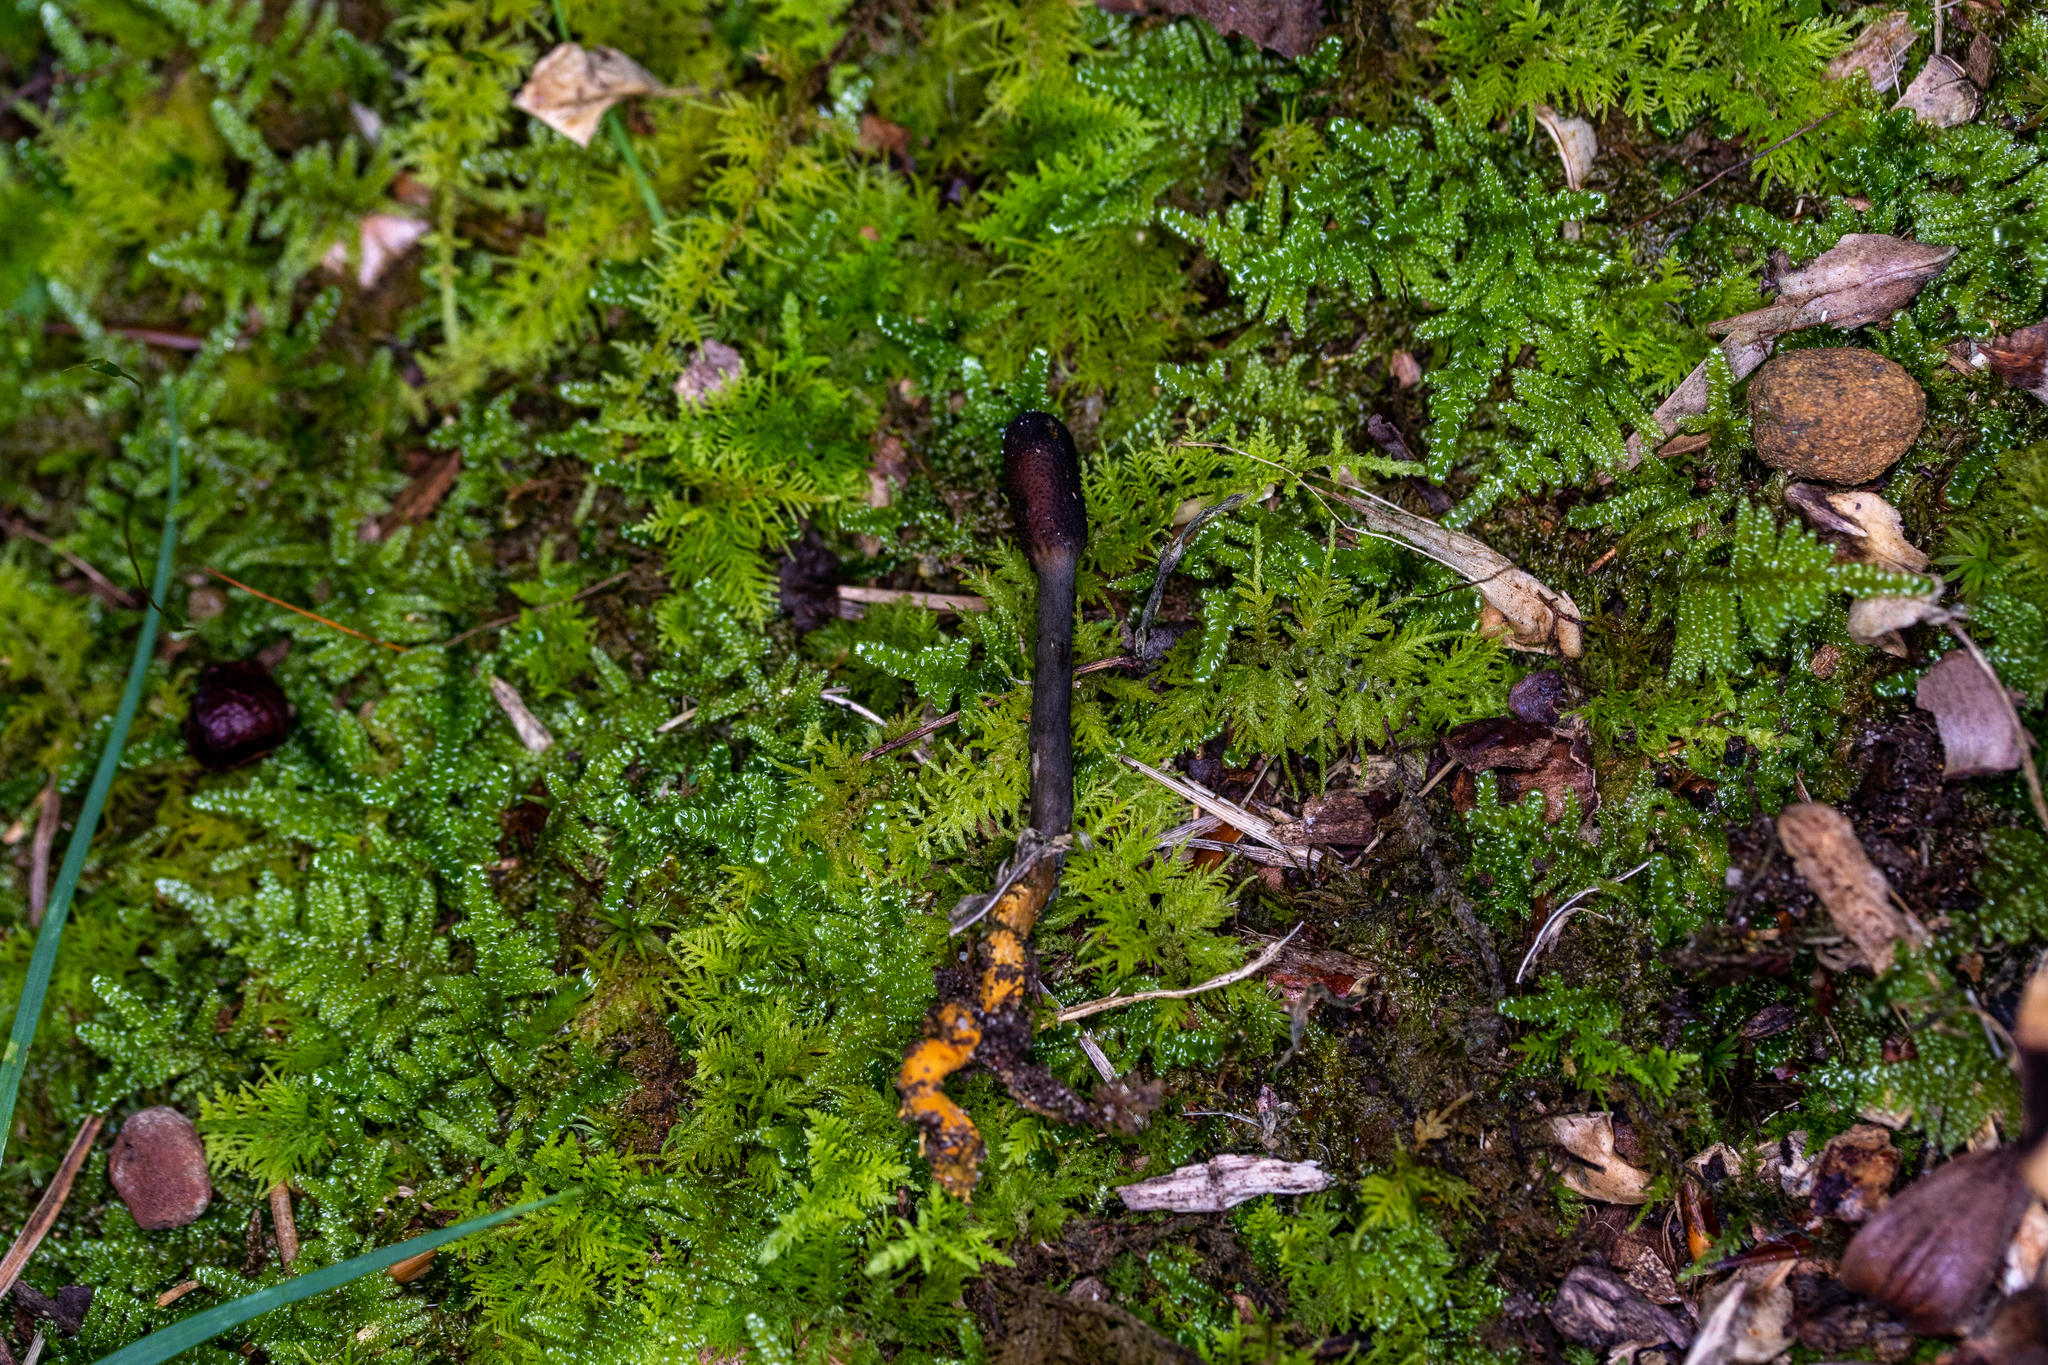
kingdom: Fungi
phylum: Ascomycota
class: Sordariomycetes
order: Hypocreales
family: Ophiocordycipitaceae
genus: Tolypocladium
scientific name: Tolypocladium ophioglossoides
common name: Snaketongue truffleclub
